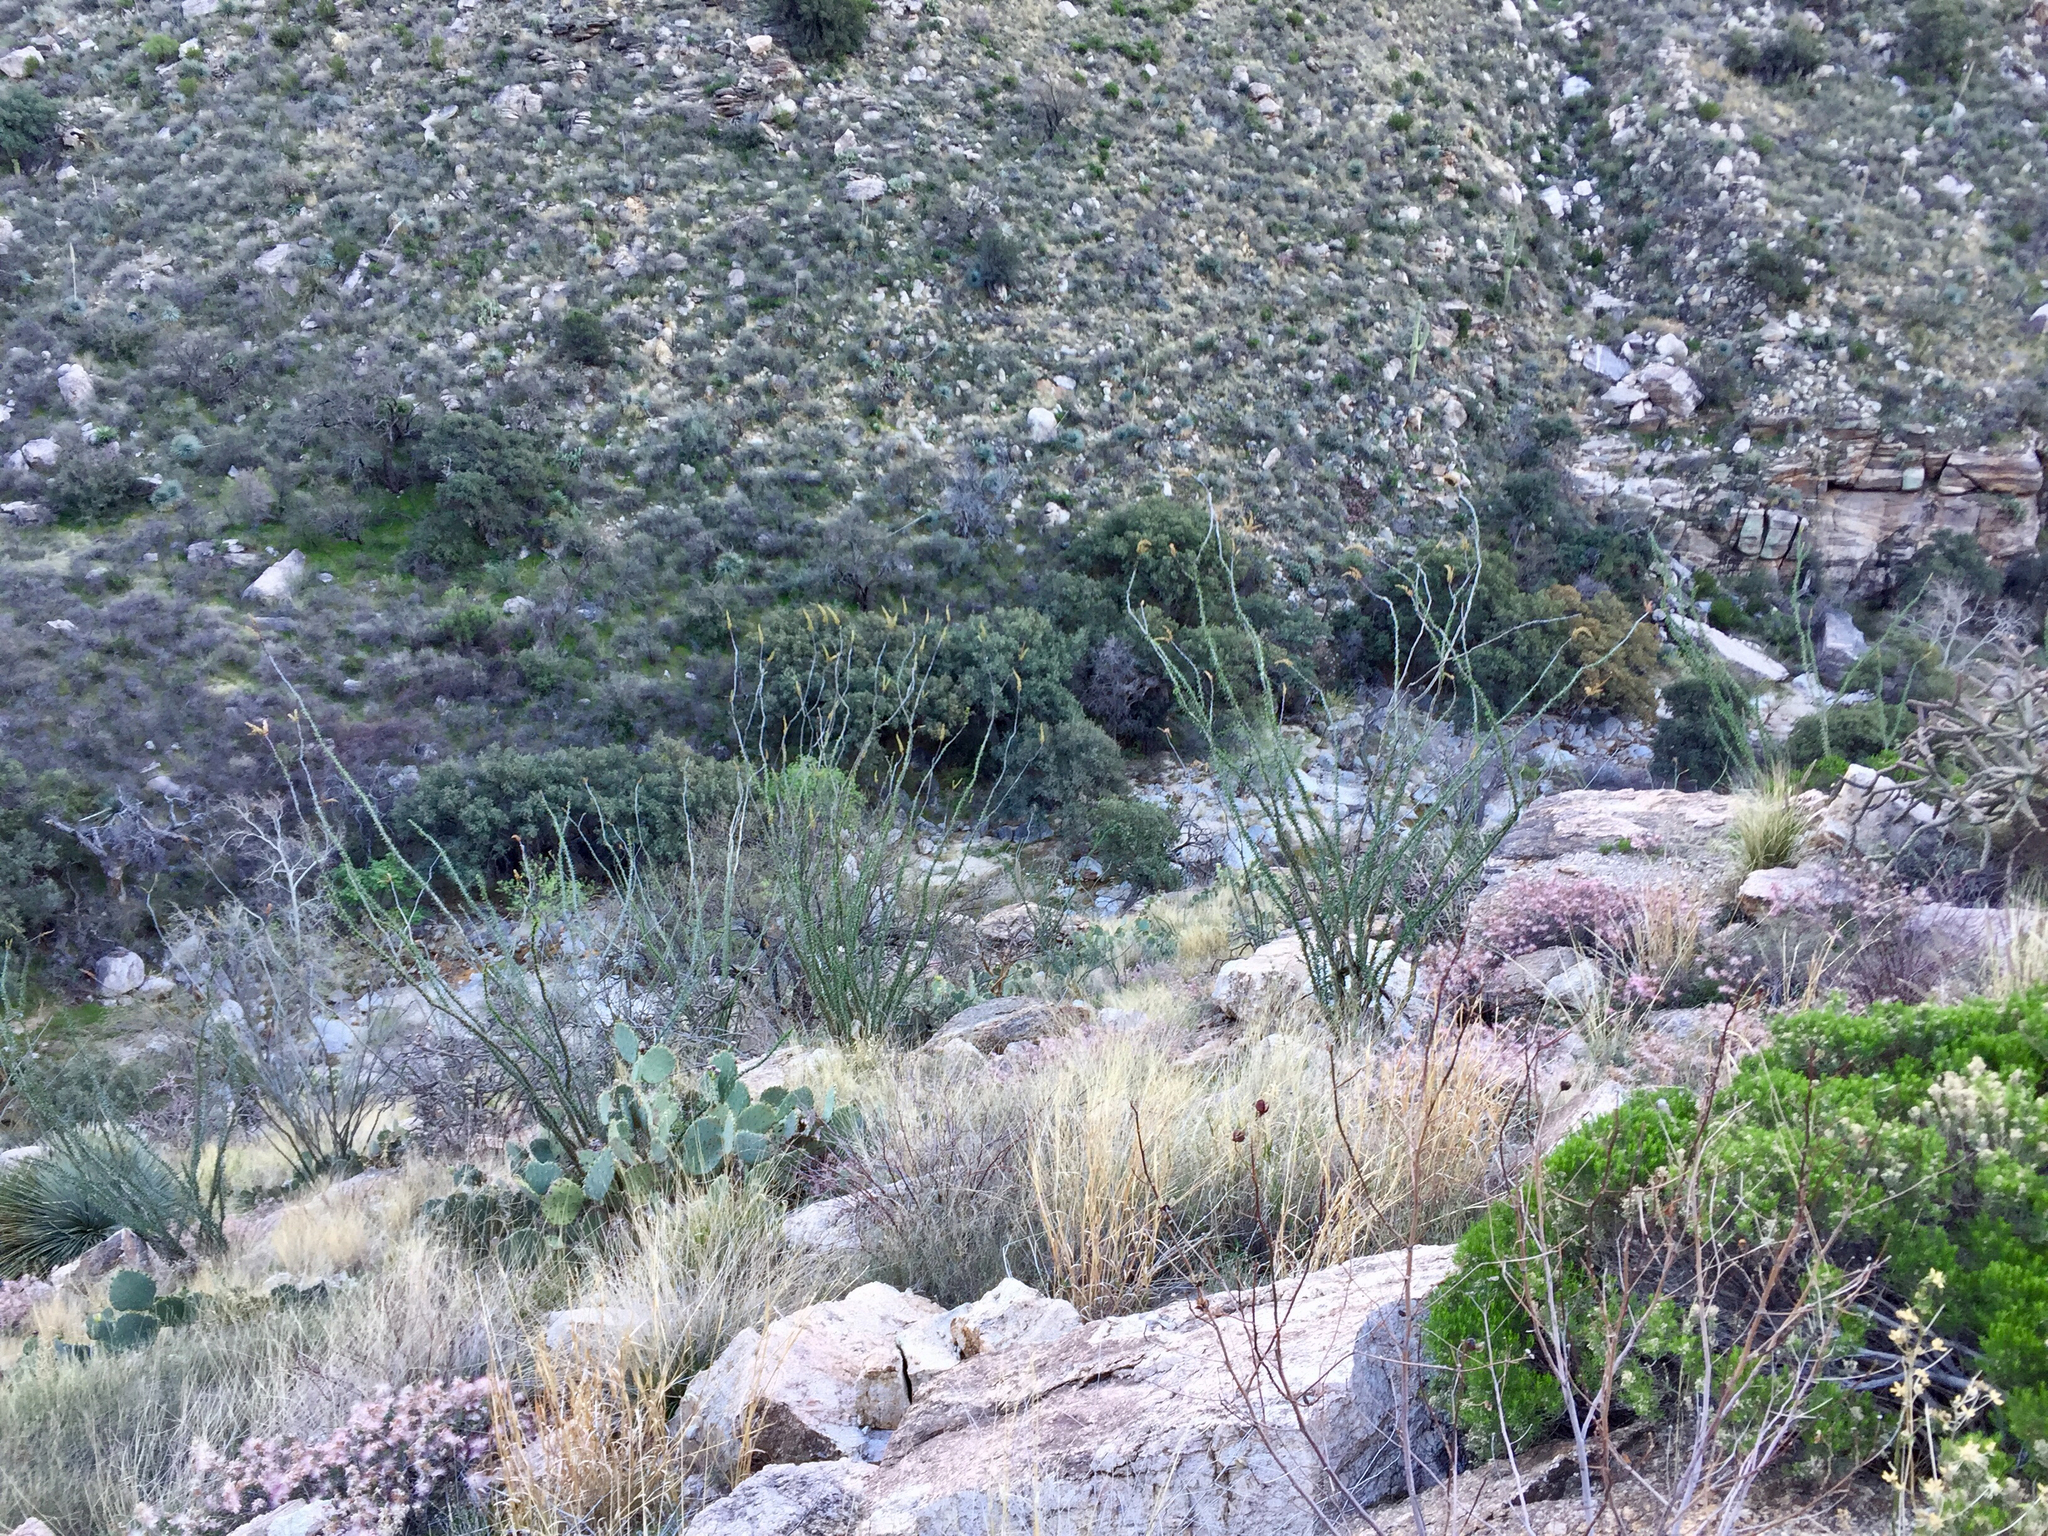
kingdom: Plantae
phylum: Tracheophyta
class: Magnoliopsida
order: Ericales
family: Fouquieriaceae
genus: Fouquieria
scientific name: Fouquieria splendens
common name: Vine-cactus
